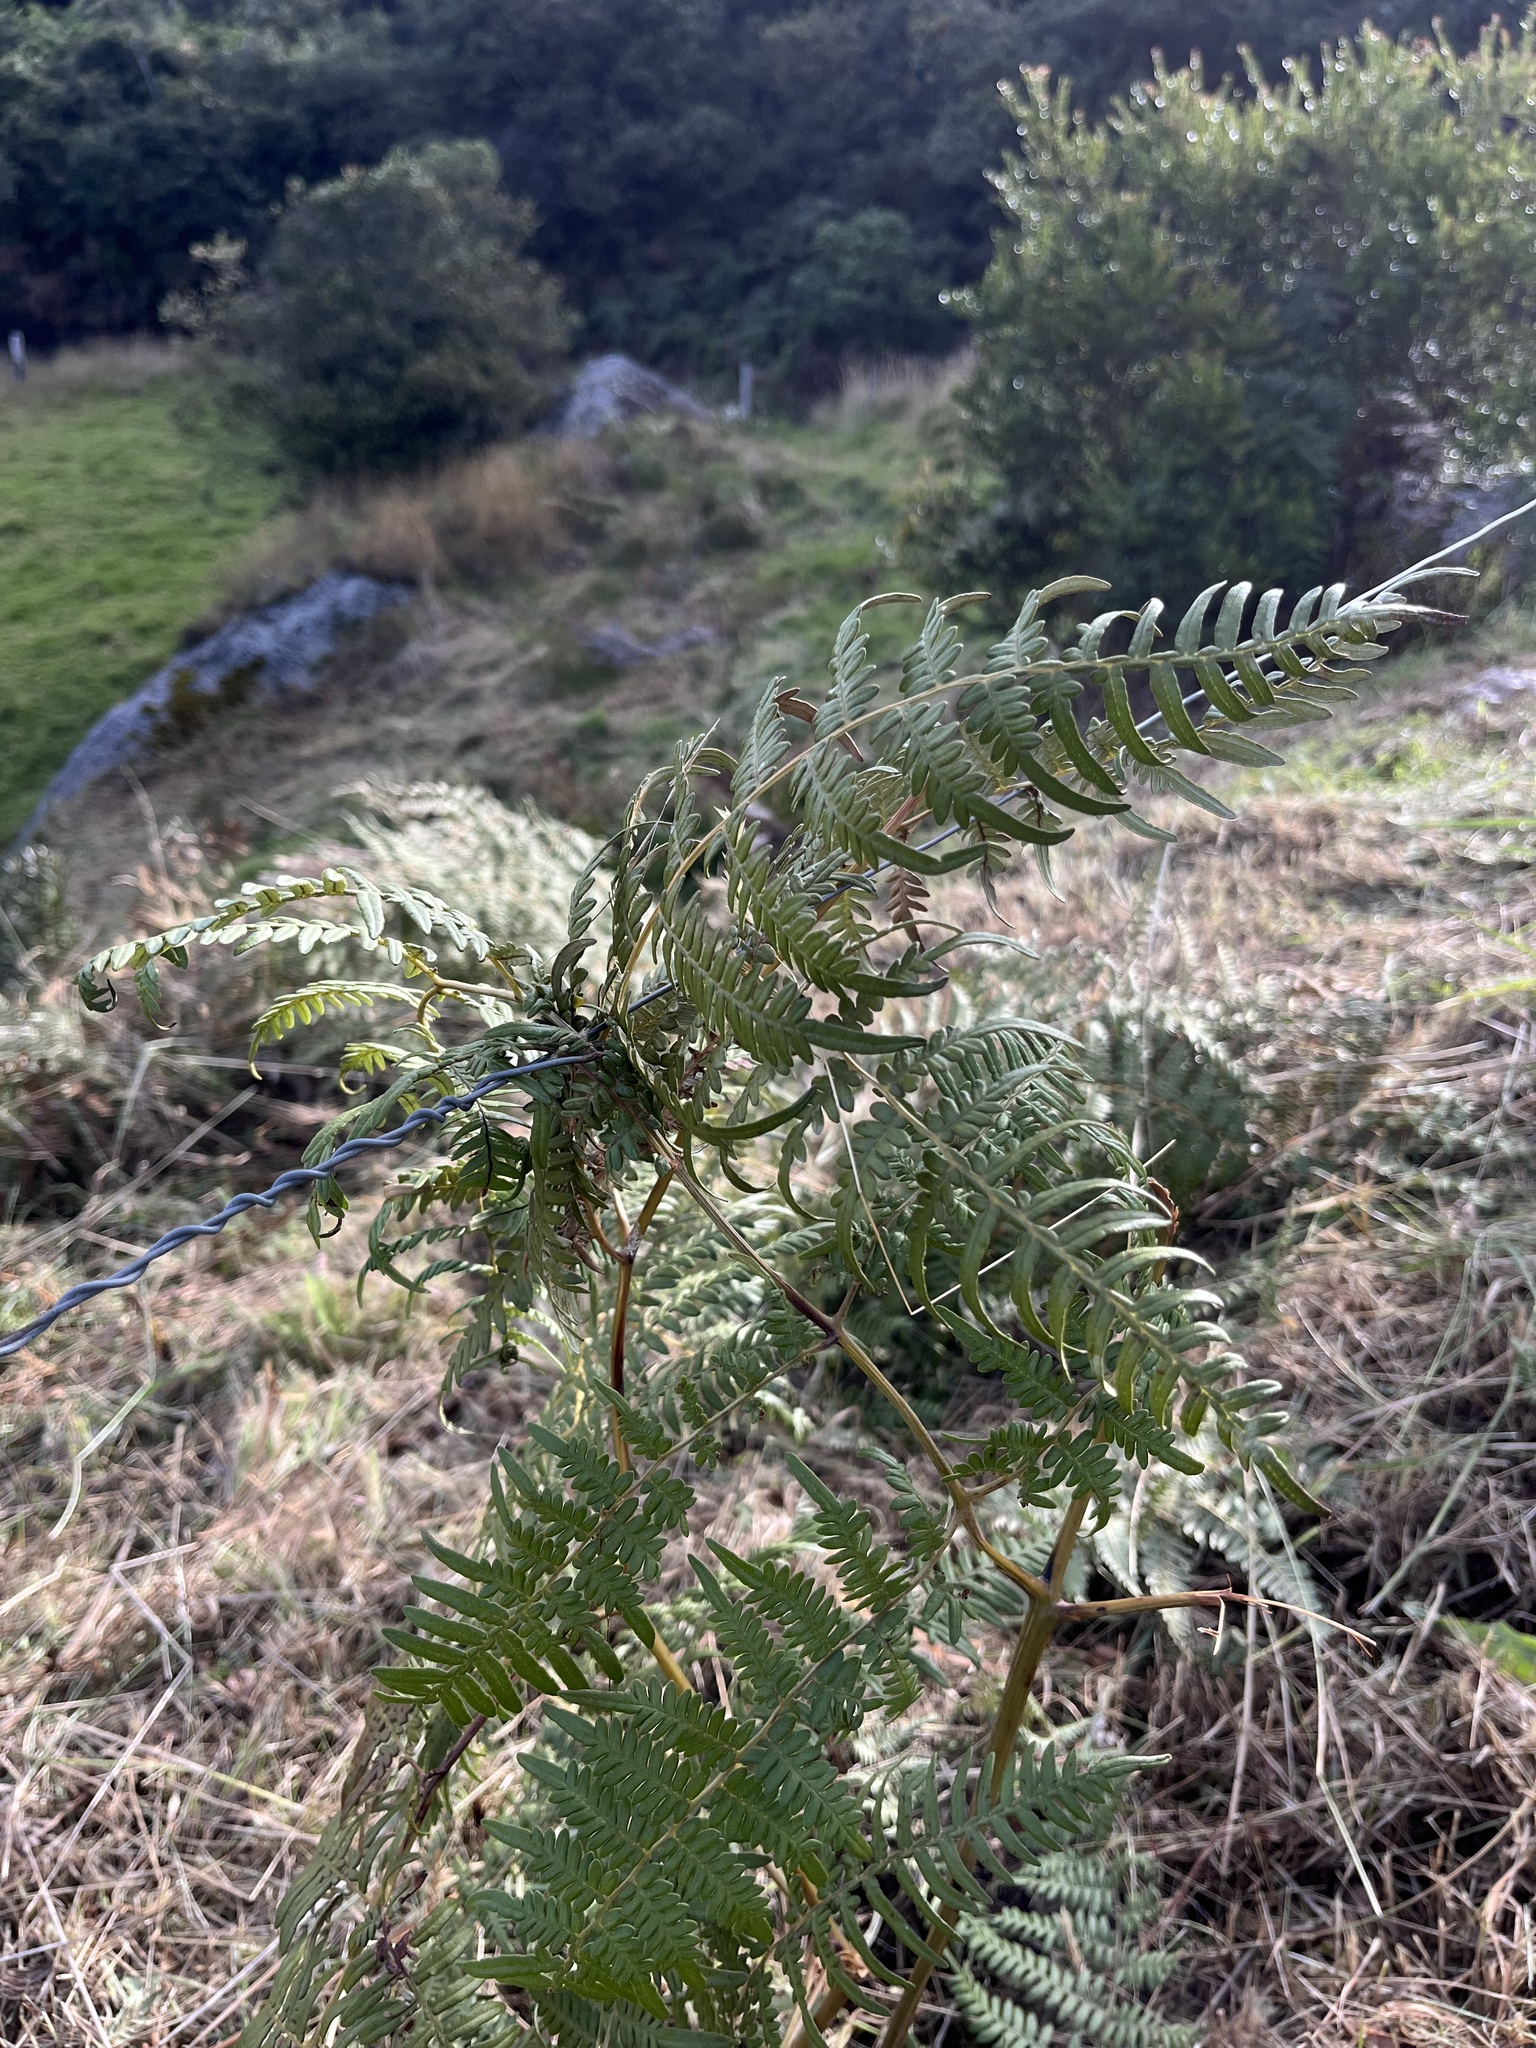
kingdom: Plantae
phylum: Tracheophyta
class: Polypodiopsida
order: Polypodiales
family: Dennstaedtiaceae
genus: Pteridium
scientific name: Pteridium esculentum
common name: Bracken fern
